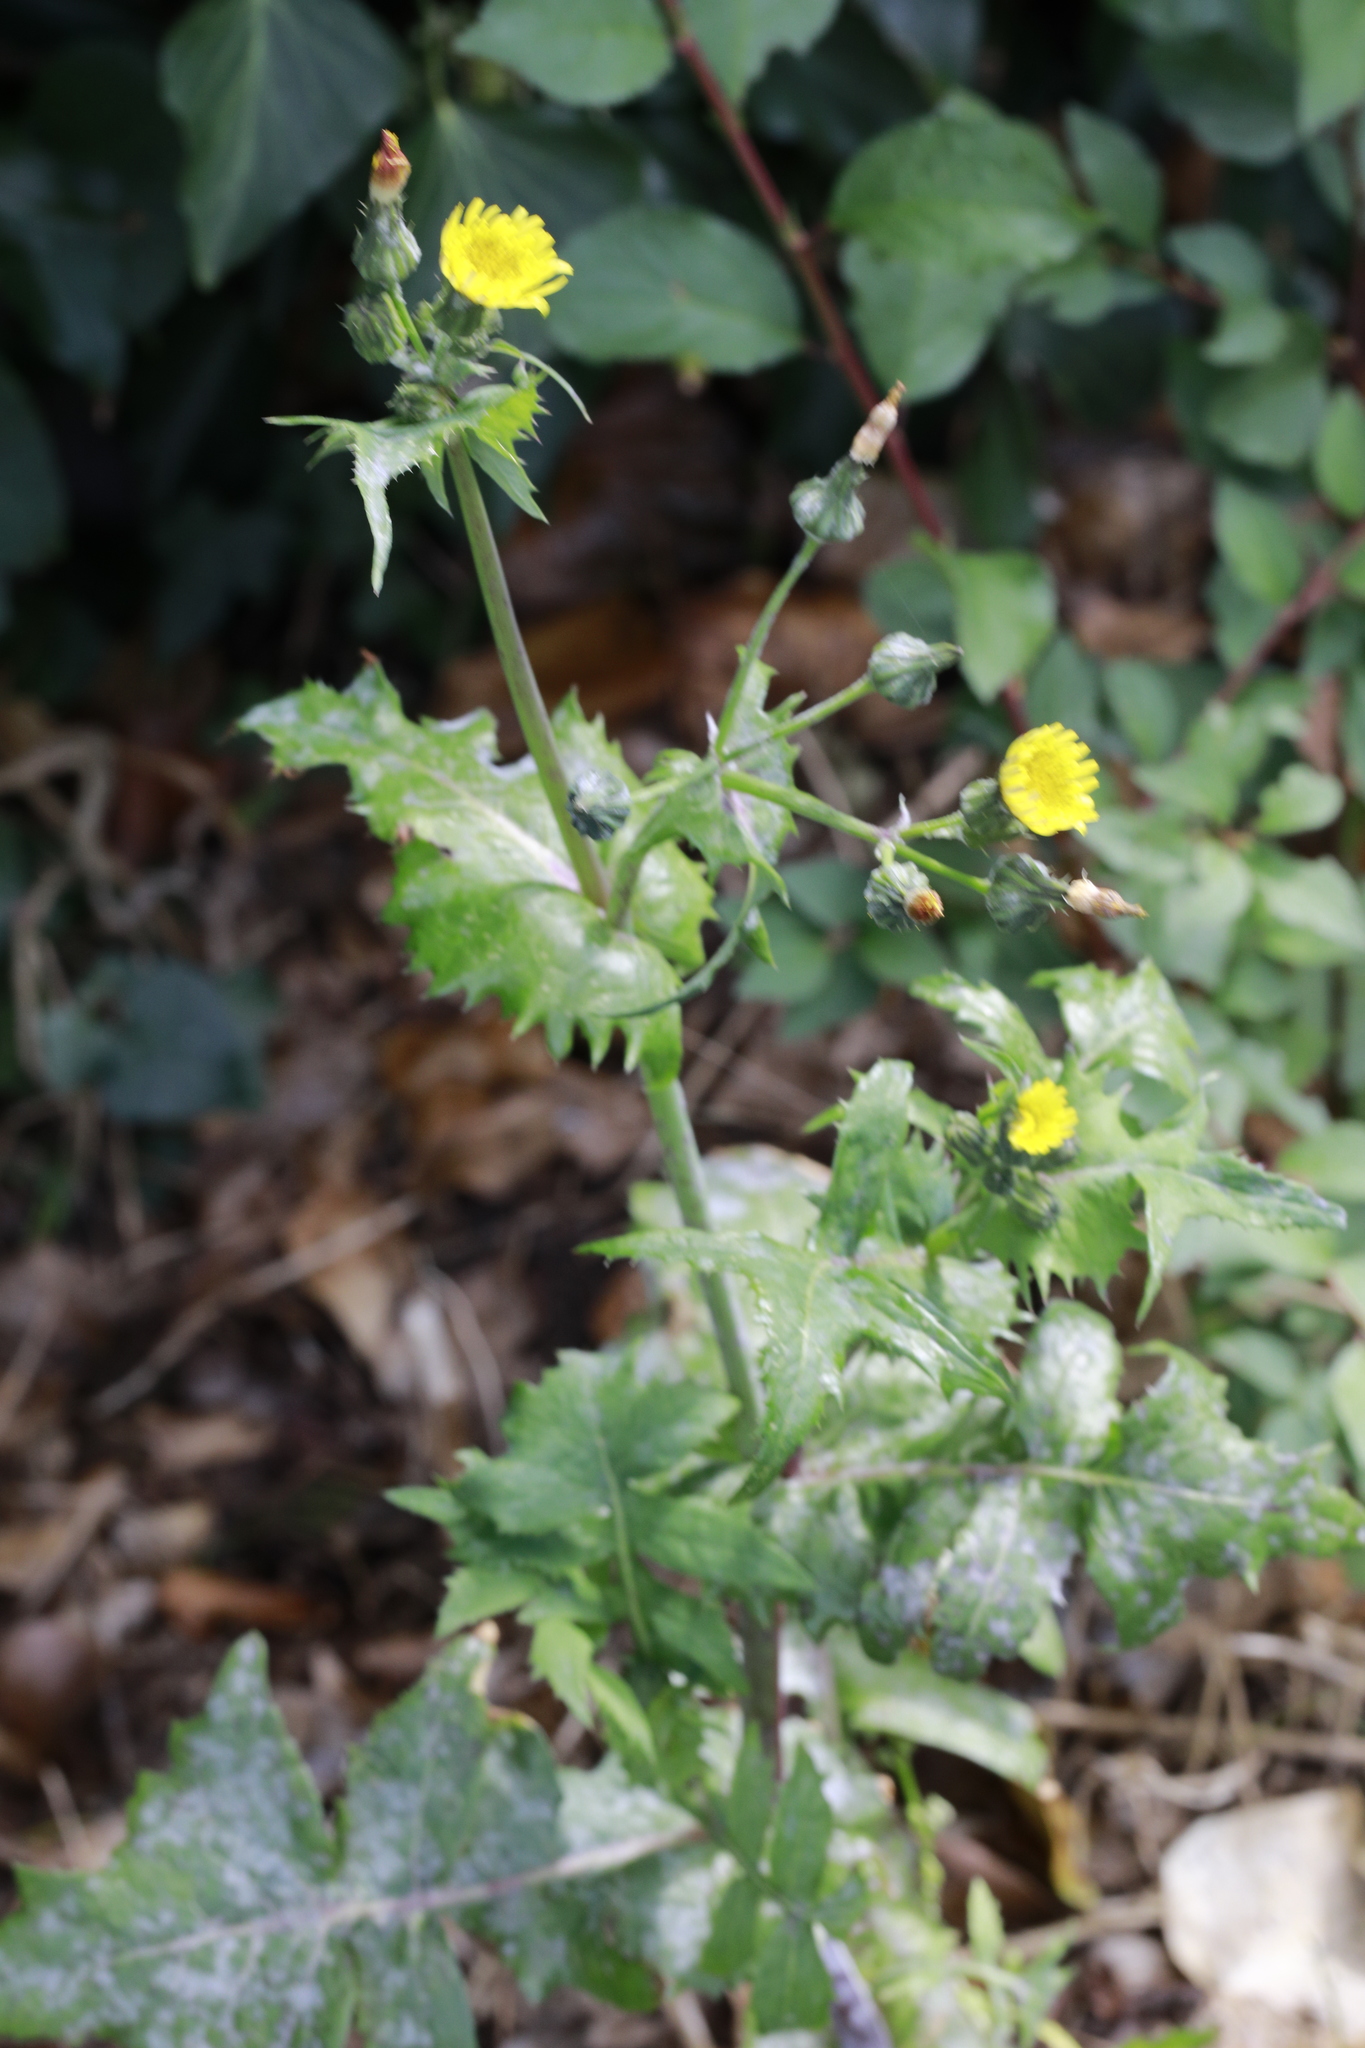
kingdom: Plantae
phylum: Tracheophyta
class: Magnoliopsida
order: Asterales
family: Asteraceae
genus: Sonchus
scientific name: Sonchus oleraceus
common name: Common sowthistle
